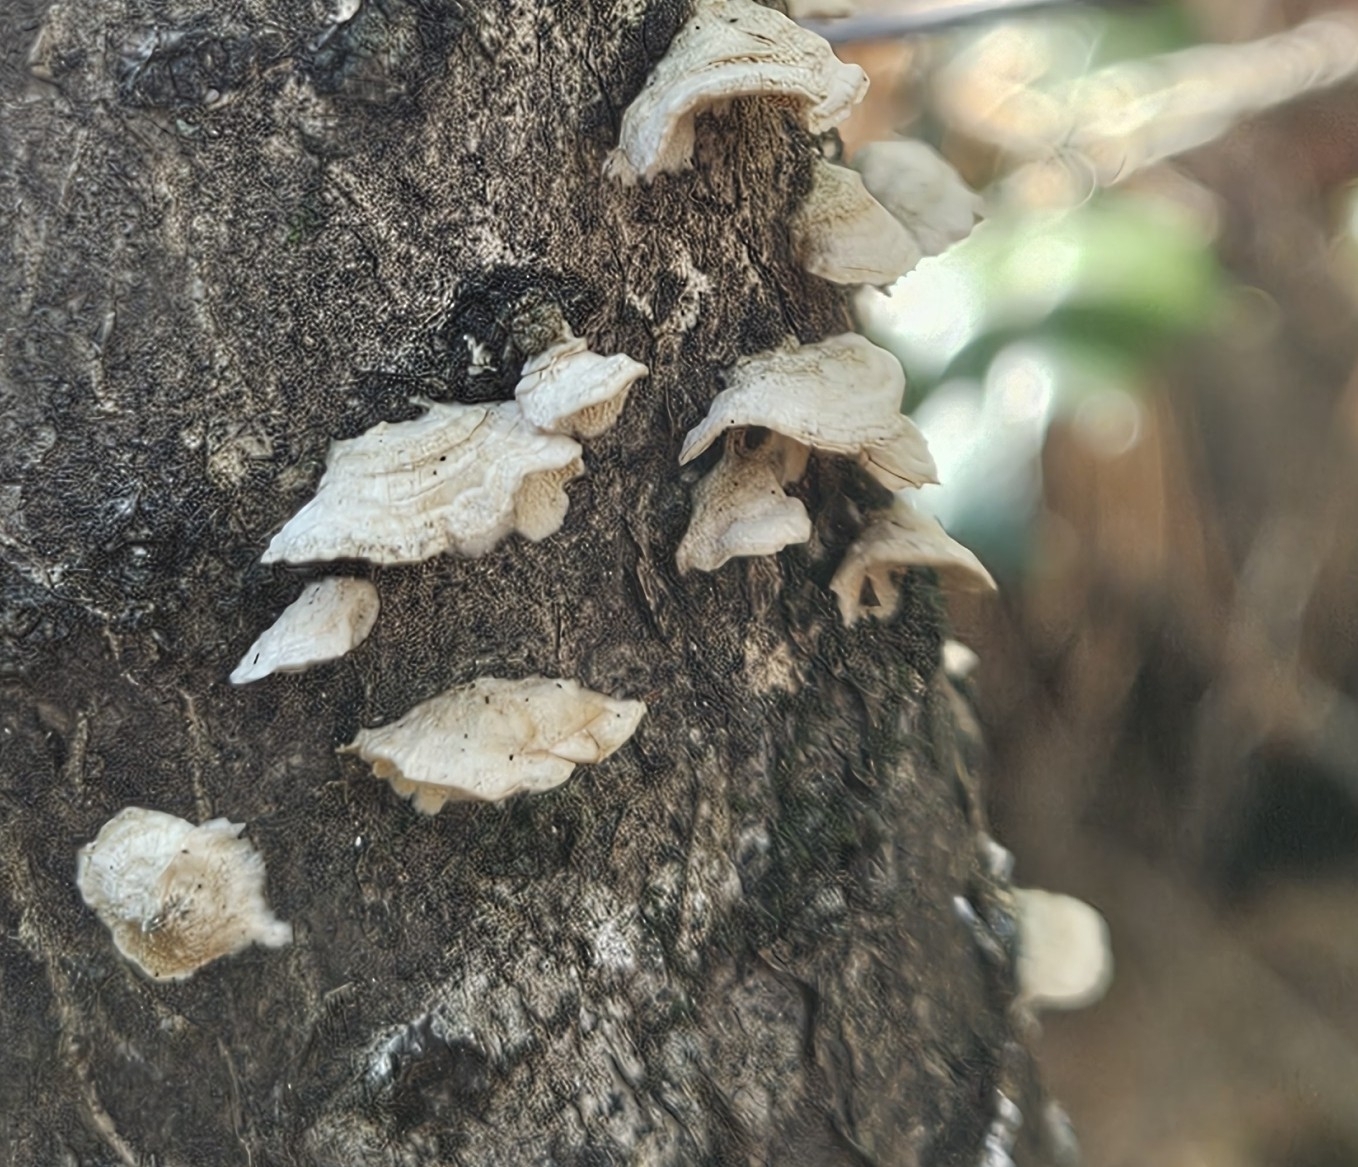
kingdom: Fungi
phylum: Basidiomycota
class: Agaricomycetes
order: Hymenochaetales
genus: Trichaptum
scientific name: Trichaptum biforme
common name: Violet-toothed polypore
